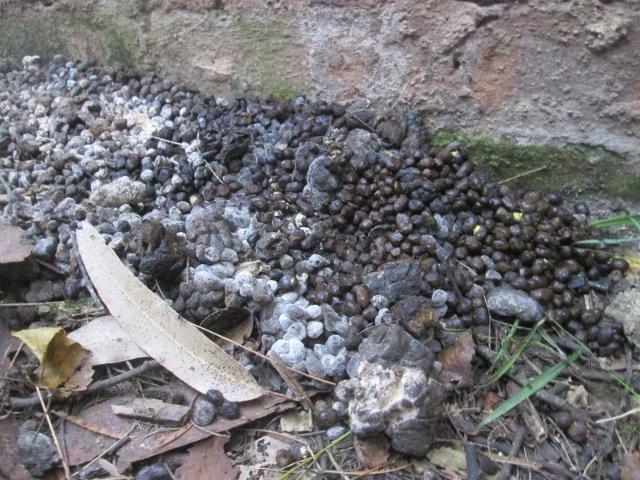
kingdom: Animalia
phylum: Chordata
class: Mammalia
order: Hyracoidea
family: Procaviidae
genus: Procavia
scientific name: Procavia capensis
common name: Rock hyrax
